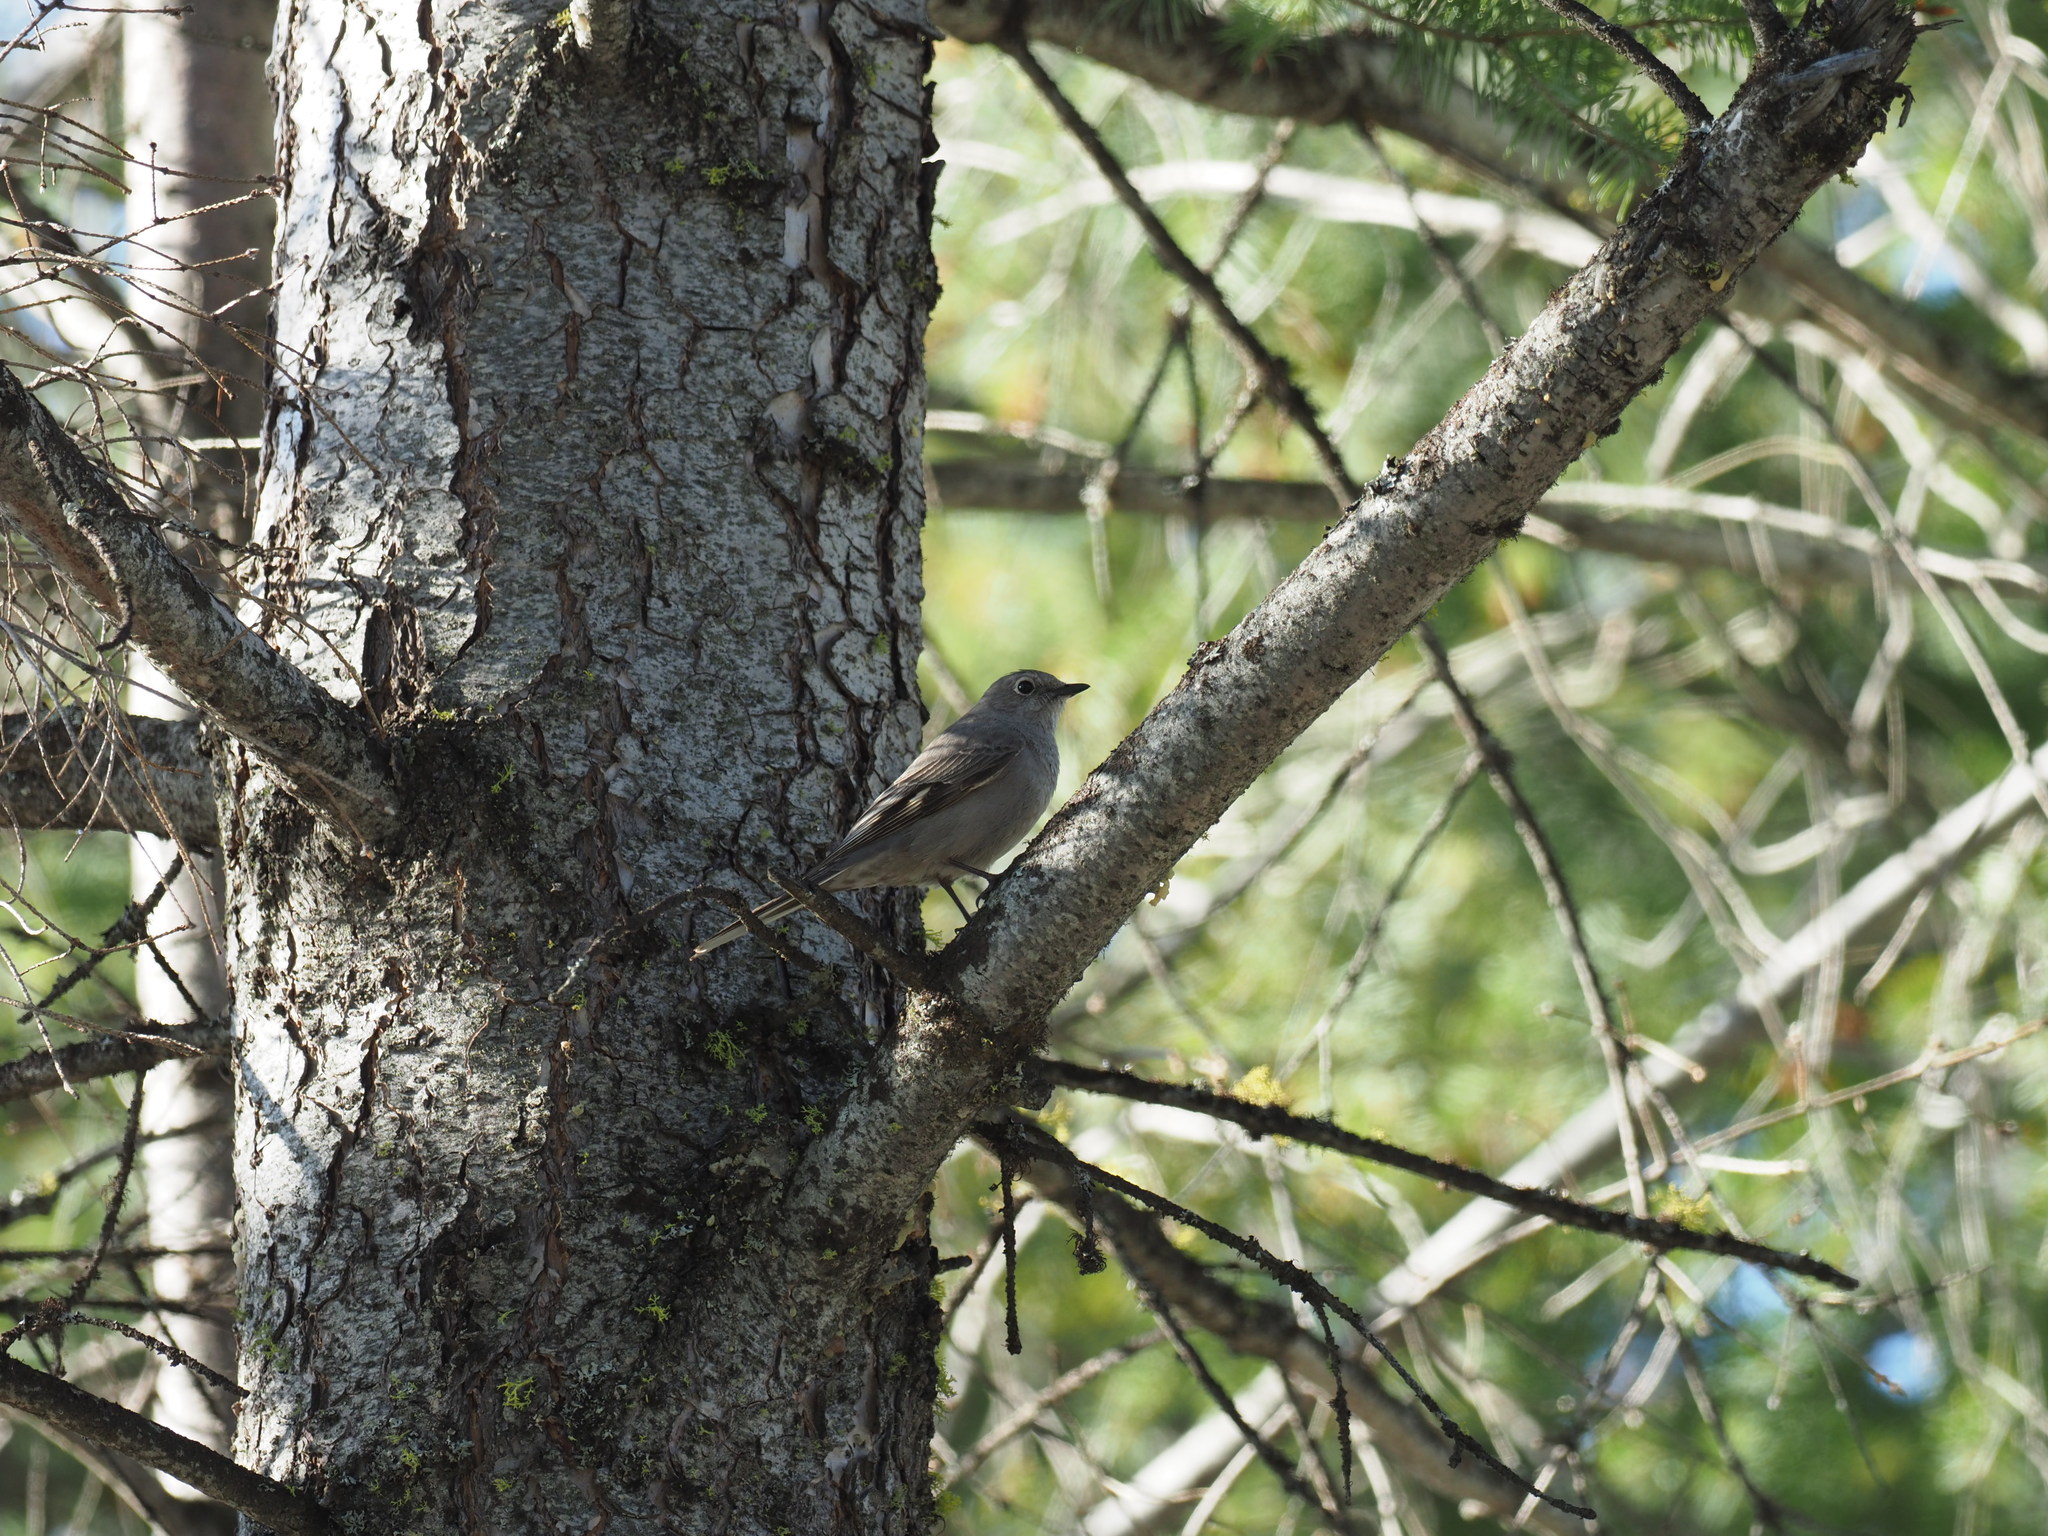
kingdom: Animalia
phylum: Chordata
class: Aves
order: Passeriformes
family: Turdidae
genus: Myadestes
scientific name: Myadestes townsendi
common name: Townsend's solitaire
